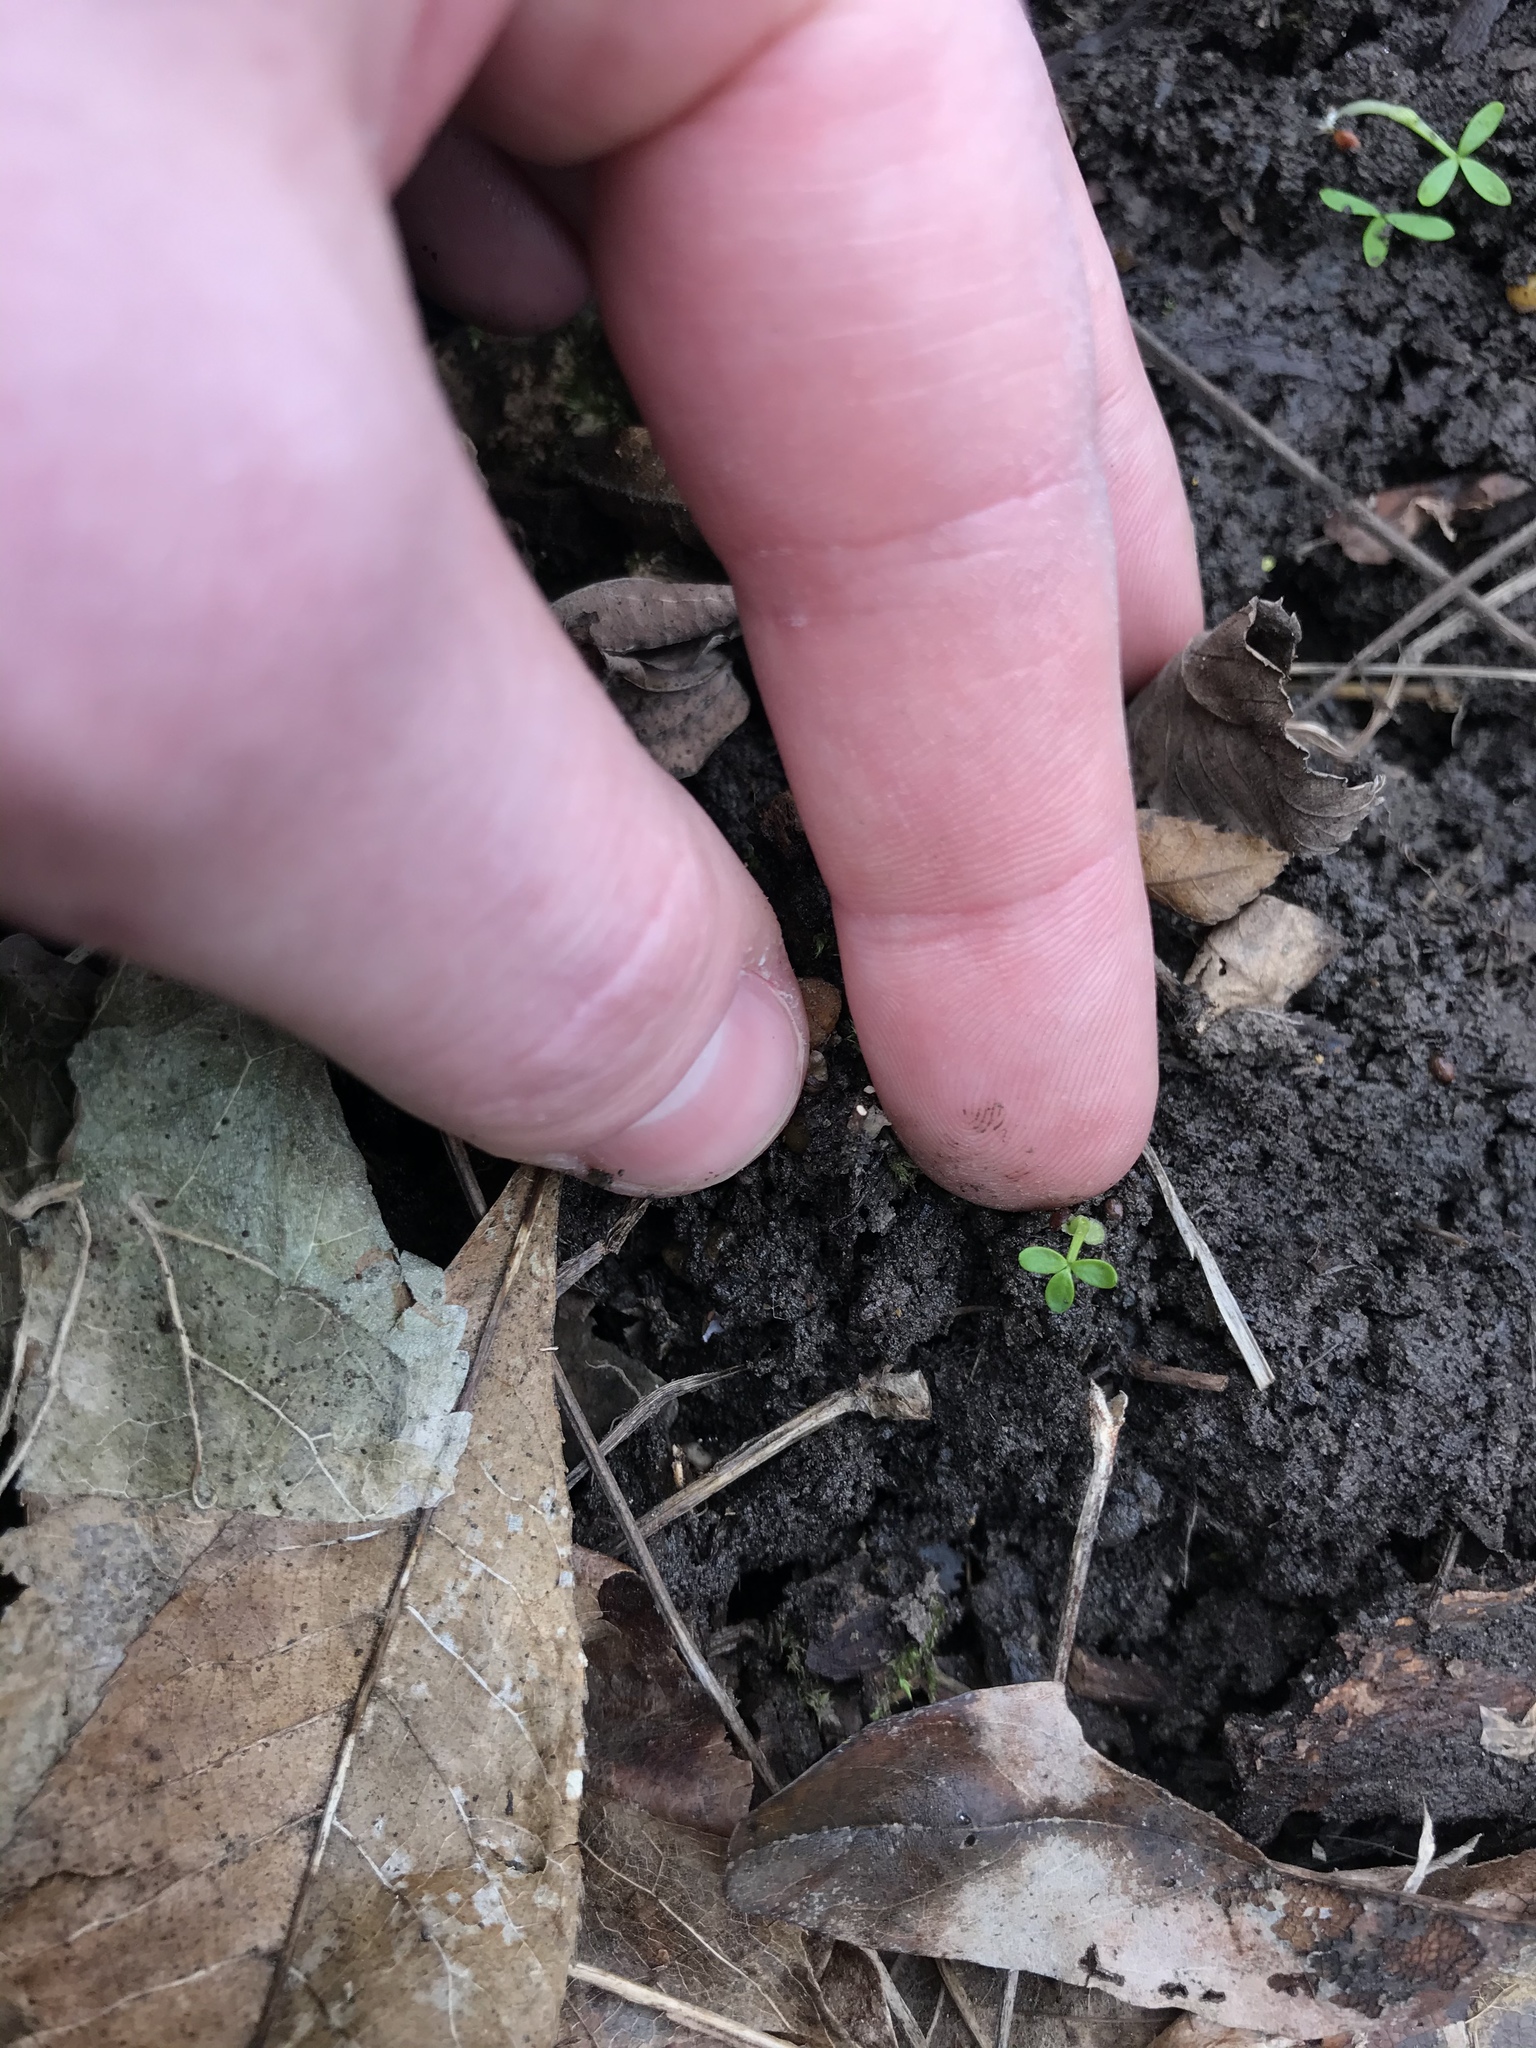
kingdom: Plantae
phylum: Tracheophyta
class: Magnoliopsida
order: Brassicales
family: Limnanthaceae
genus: Floerkea
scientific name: Floerkea proserpinacoides
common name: False mermaid
